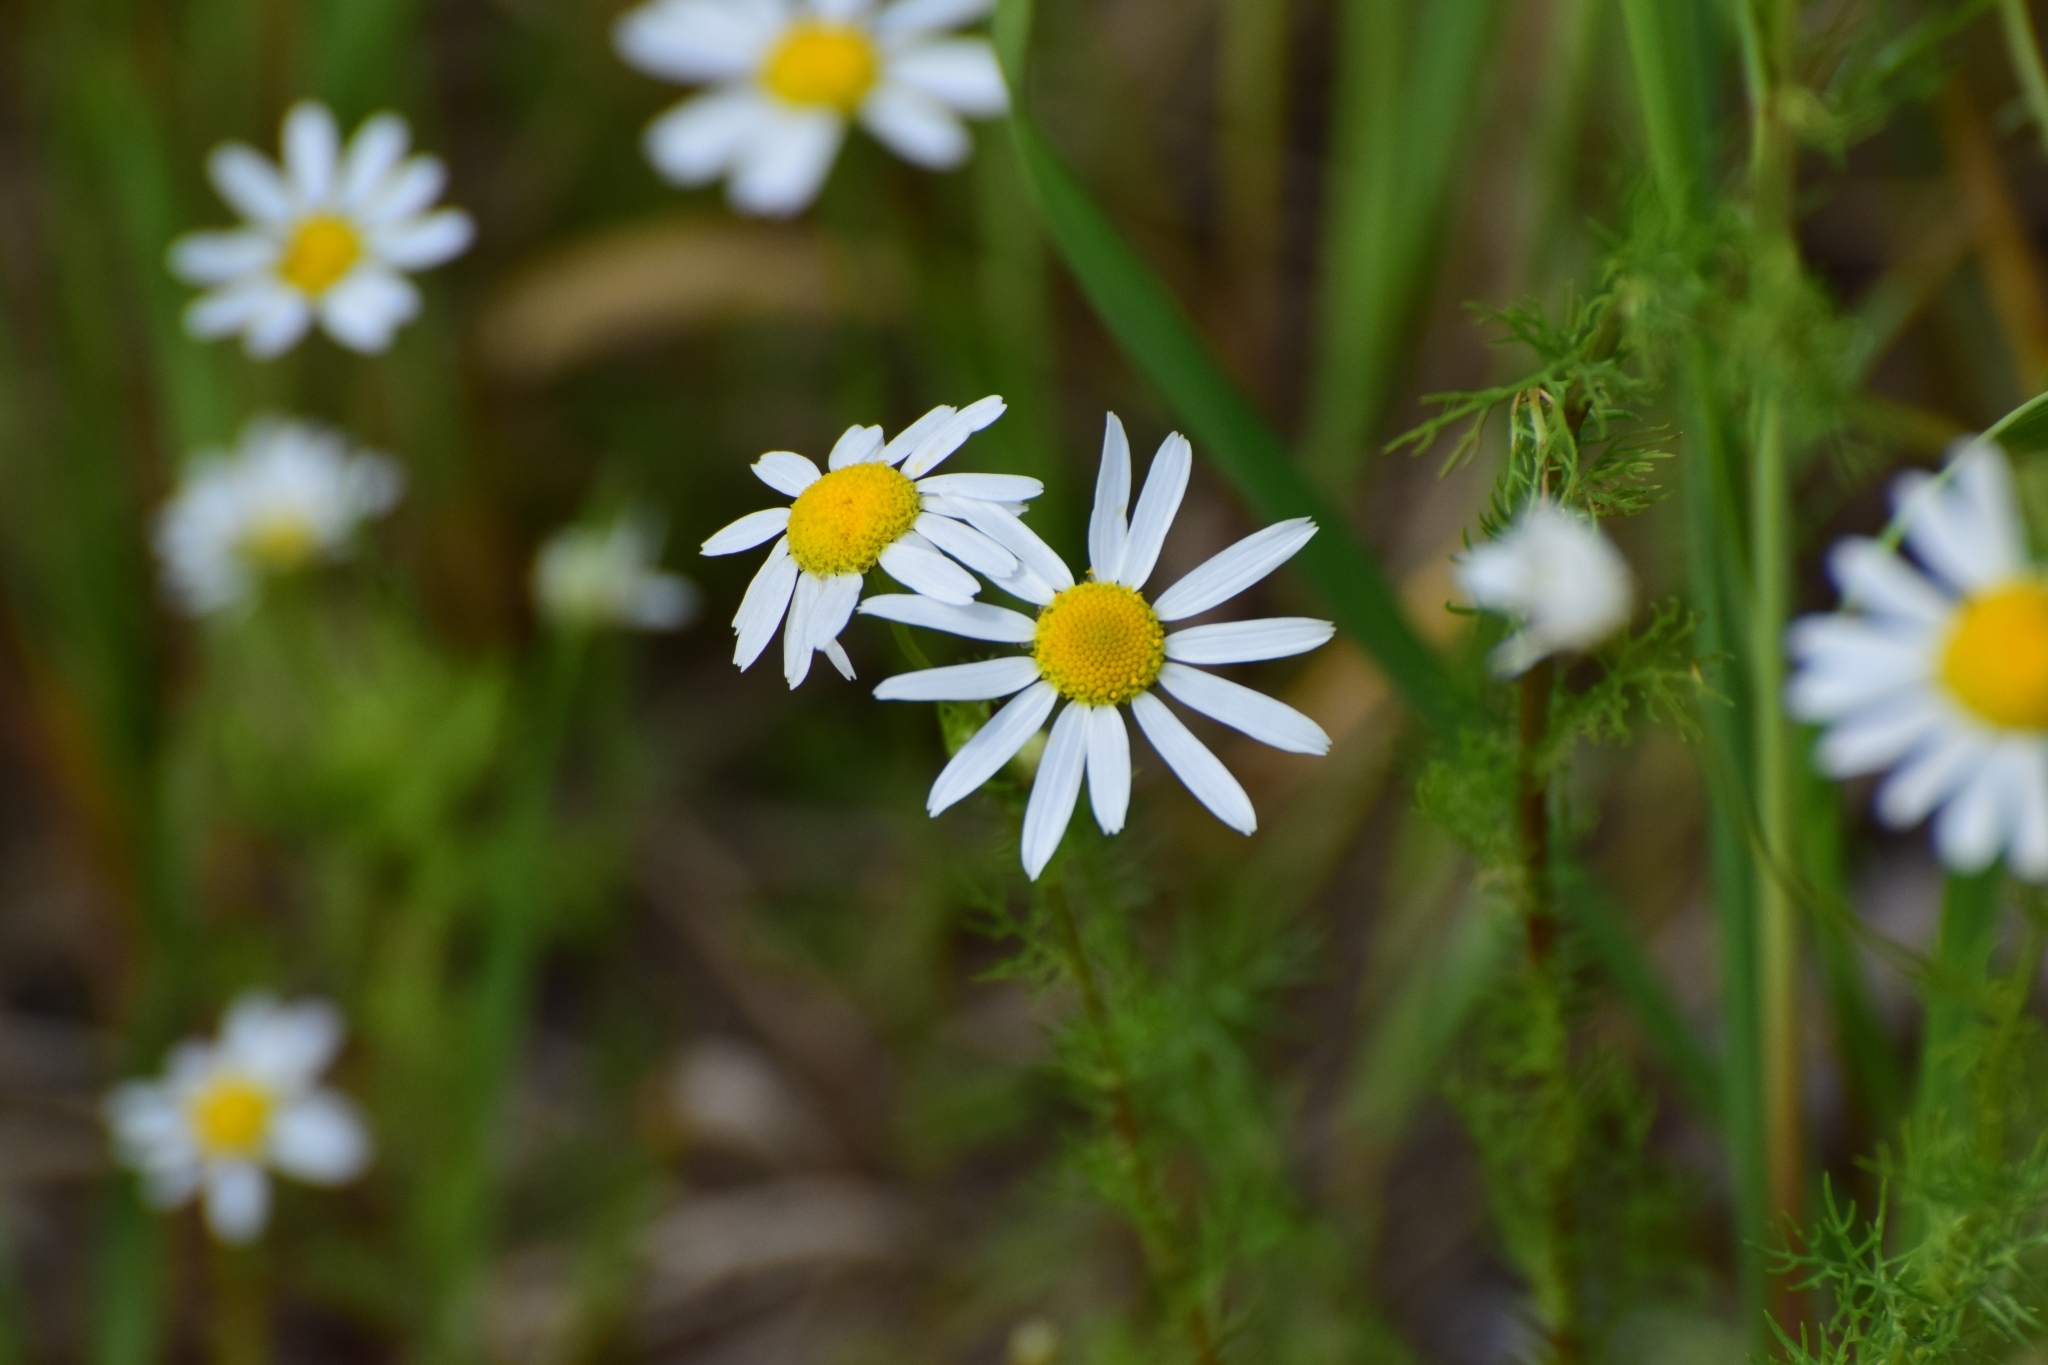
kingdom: Plantae
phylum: Tracheophyta
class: Magnoliopsida
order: Asterales
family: Asteraceae
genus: Tripleurospermum
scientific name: Tripleurospermum inodorum
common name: Scentless mayweed
